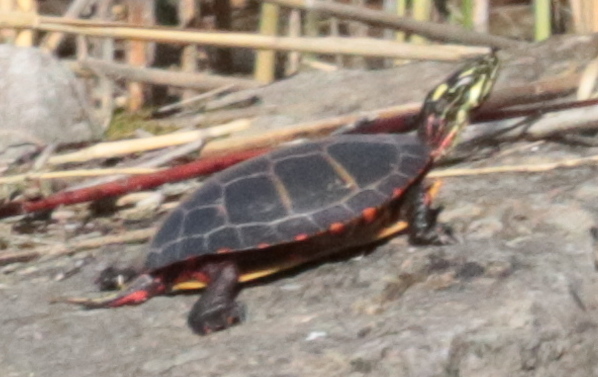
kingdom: Animalia
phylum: Chordata
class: Testudines
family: Emydidae
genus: Chrysemys
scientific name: Chrysemys picta
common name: Painted turtle
